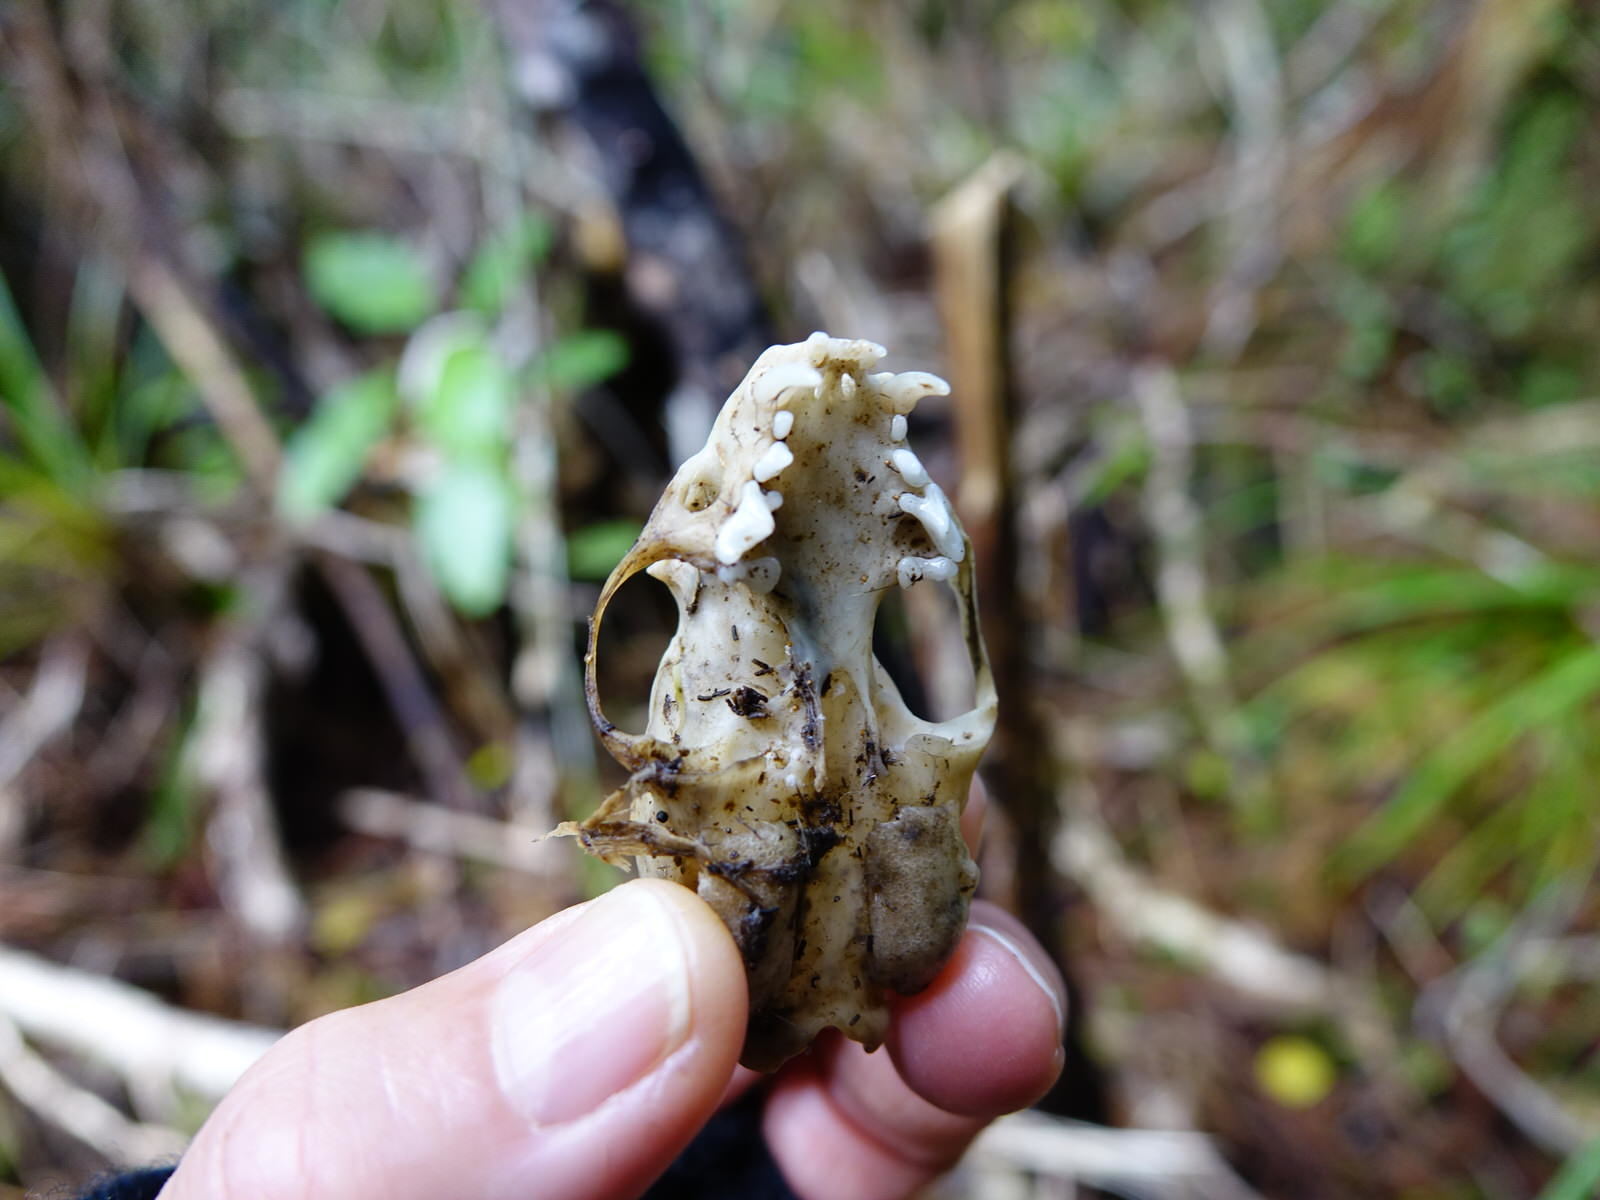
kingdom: Animalia
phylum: Chordata
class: Mammalia
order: Carnivora
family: Mustelidae
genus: Mustela
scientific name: Mustela nivalis
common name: Least weasel
